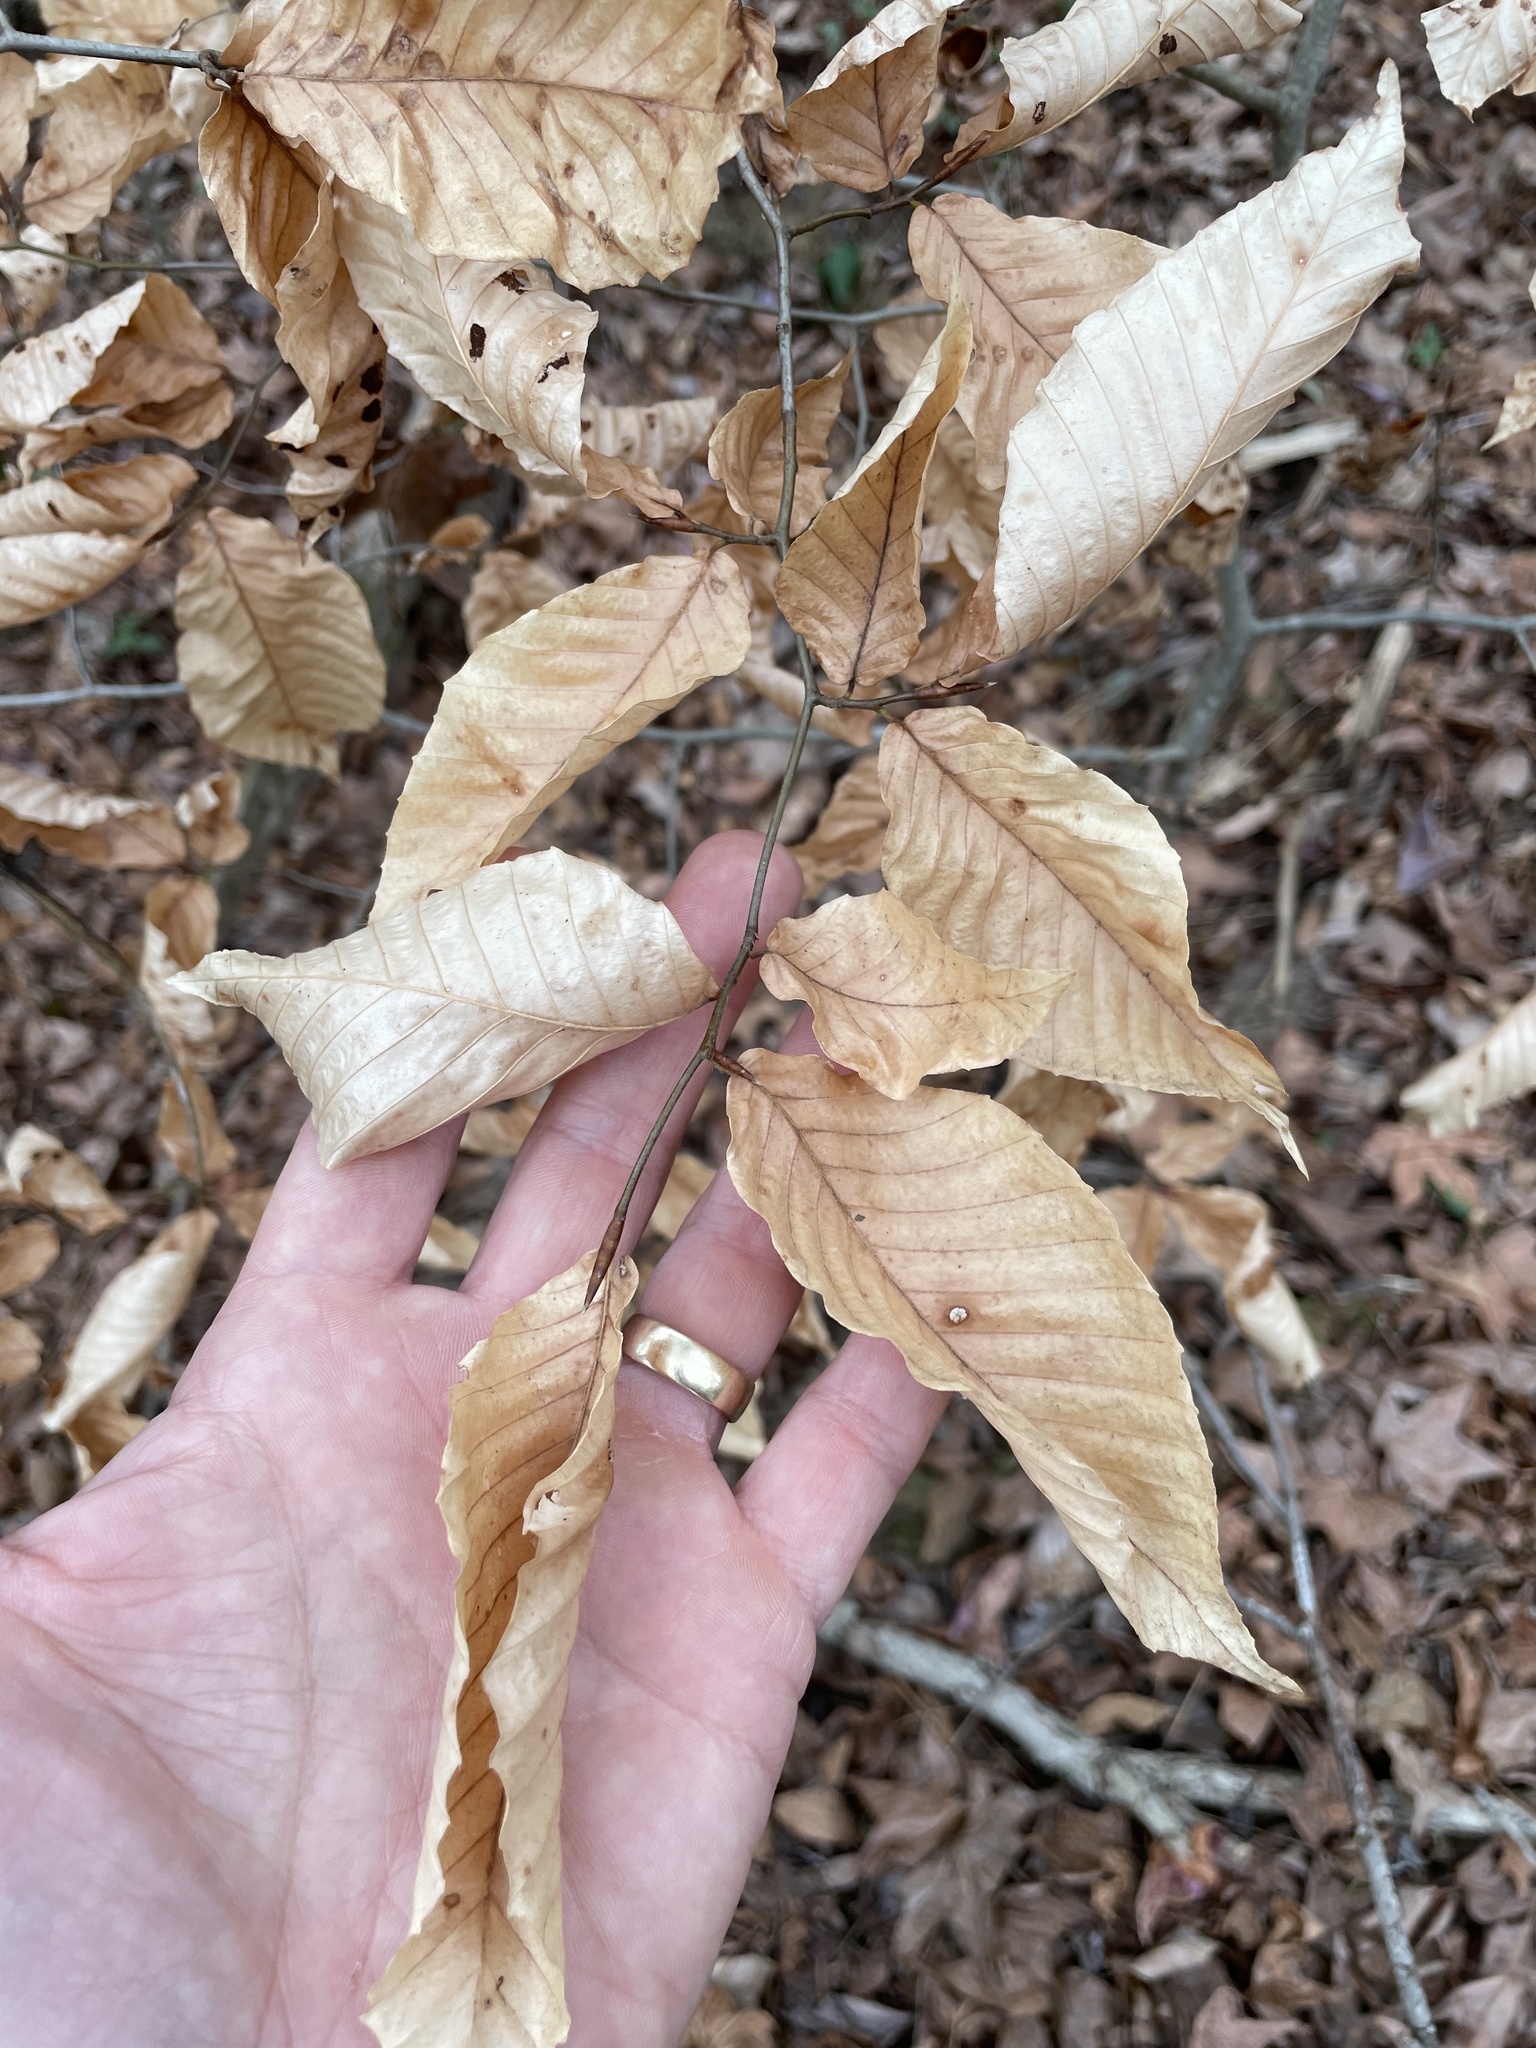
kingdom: Plantae
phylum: Tracheophyta
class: Magnoliopsida
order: Fagales
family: Fagaceae
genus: Fagus
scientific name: Fagus grandifolia
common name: American beech
